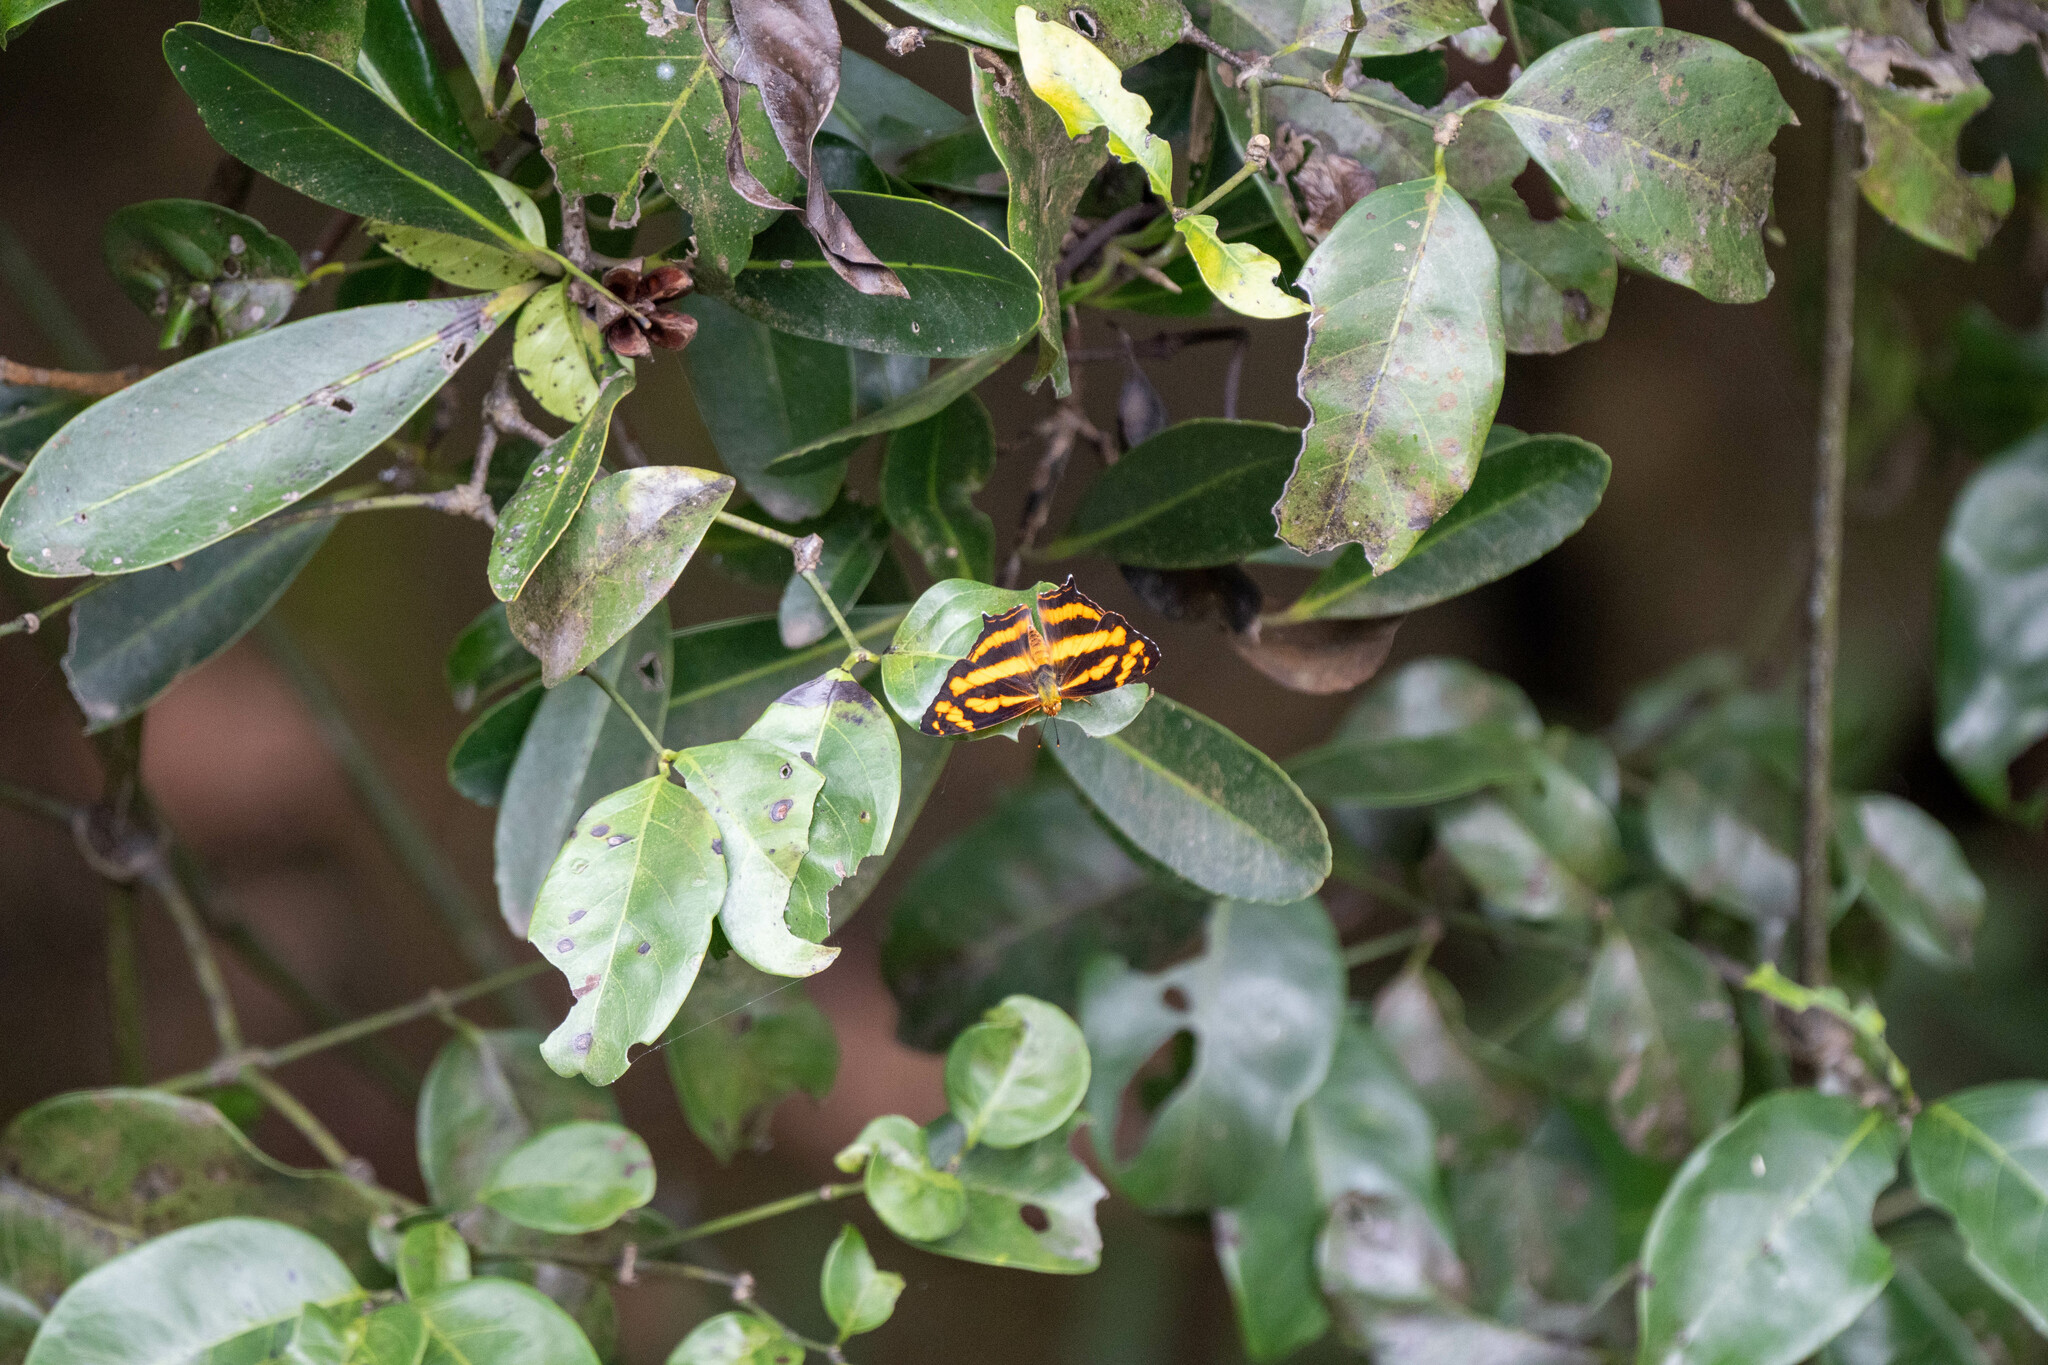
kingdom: Animalia
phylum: Arthropoda
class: Insecta
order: Lepidoptera
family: Nymphalidae
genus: Symbrenthia
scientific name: Symbrenthia hypselis
